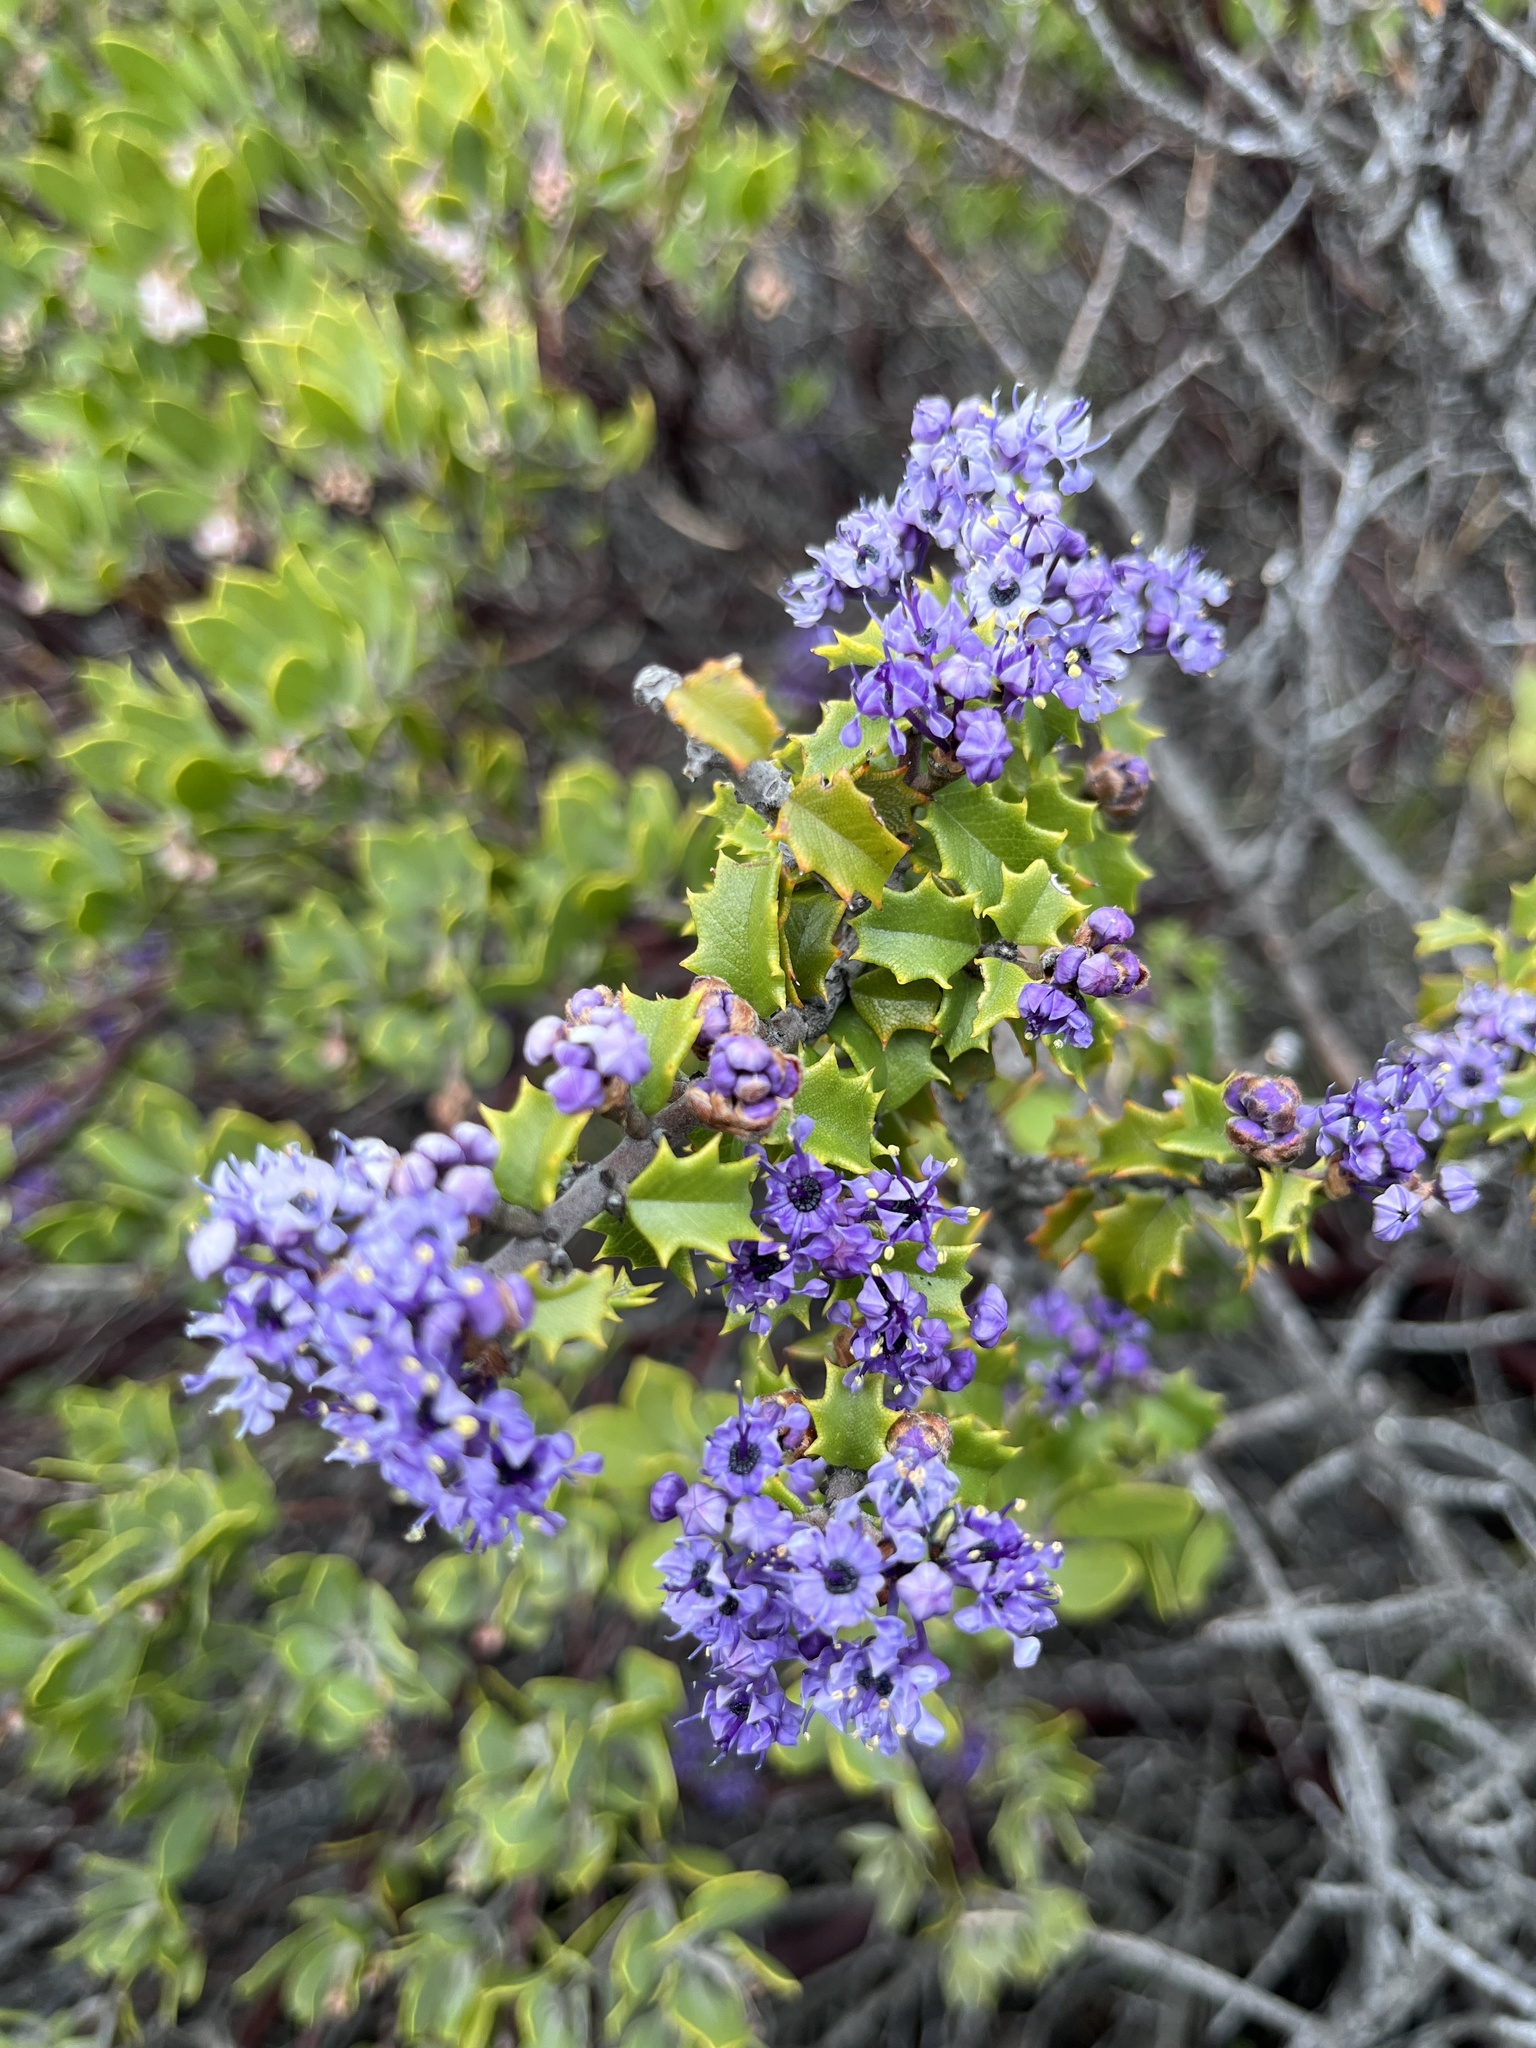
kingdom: Plantae
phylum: Tracheophyta
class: Magnoliopsida
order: Rosales
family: Rhamnaceae
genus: Ceanothus
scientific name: Ceanothus jepsonii
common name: Muskbrush
